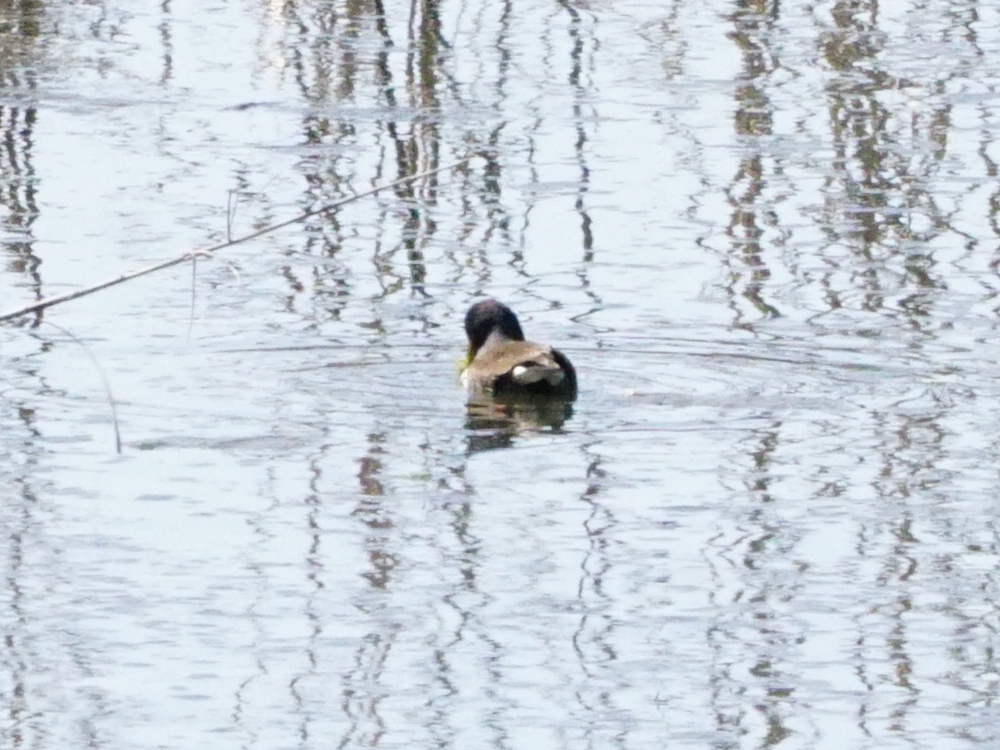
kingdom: Animalia
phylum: Chordata
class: Aves
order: Gruiformes
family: Rallidae
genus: Gallinula
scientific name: Gallinula chloropus
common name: Common moorhen
